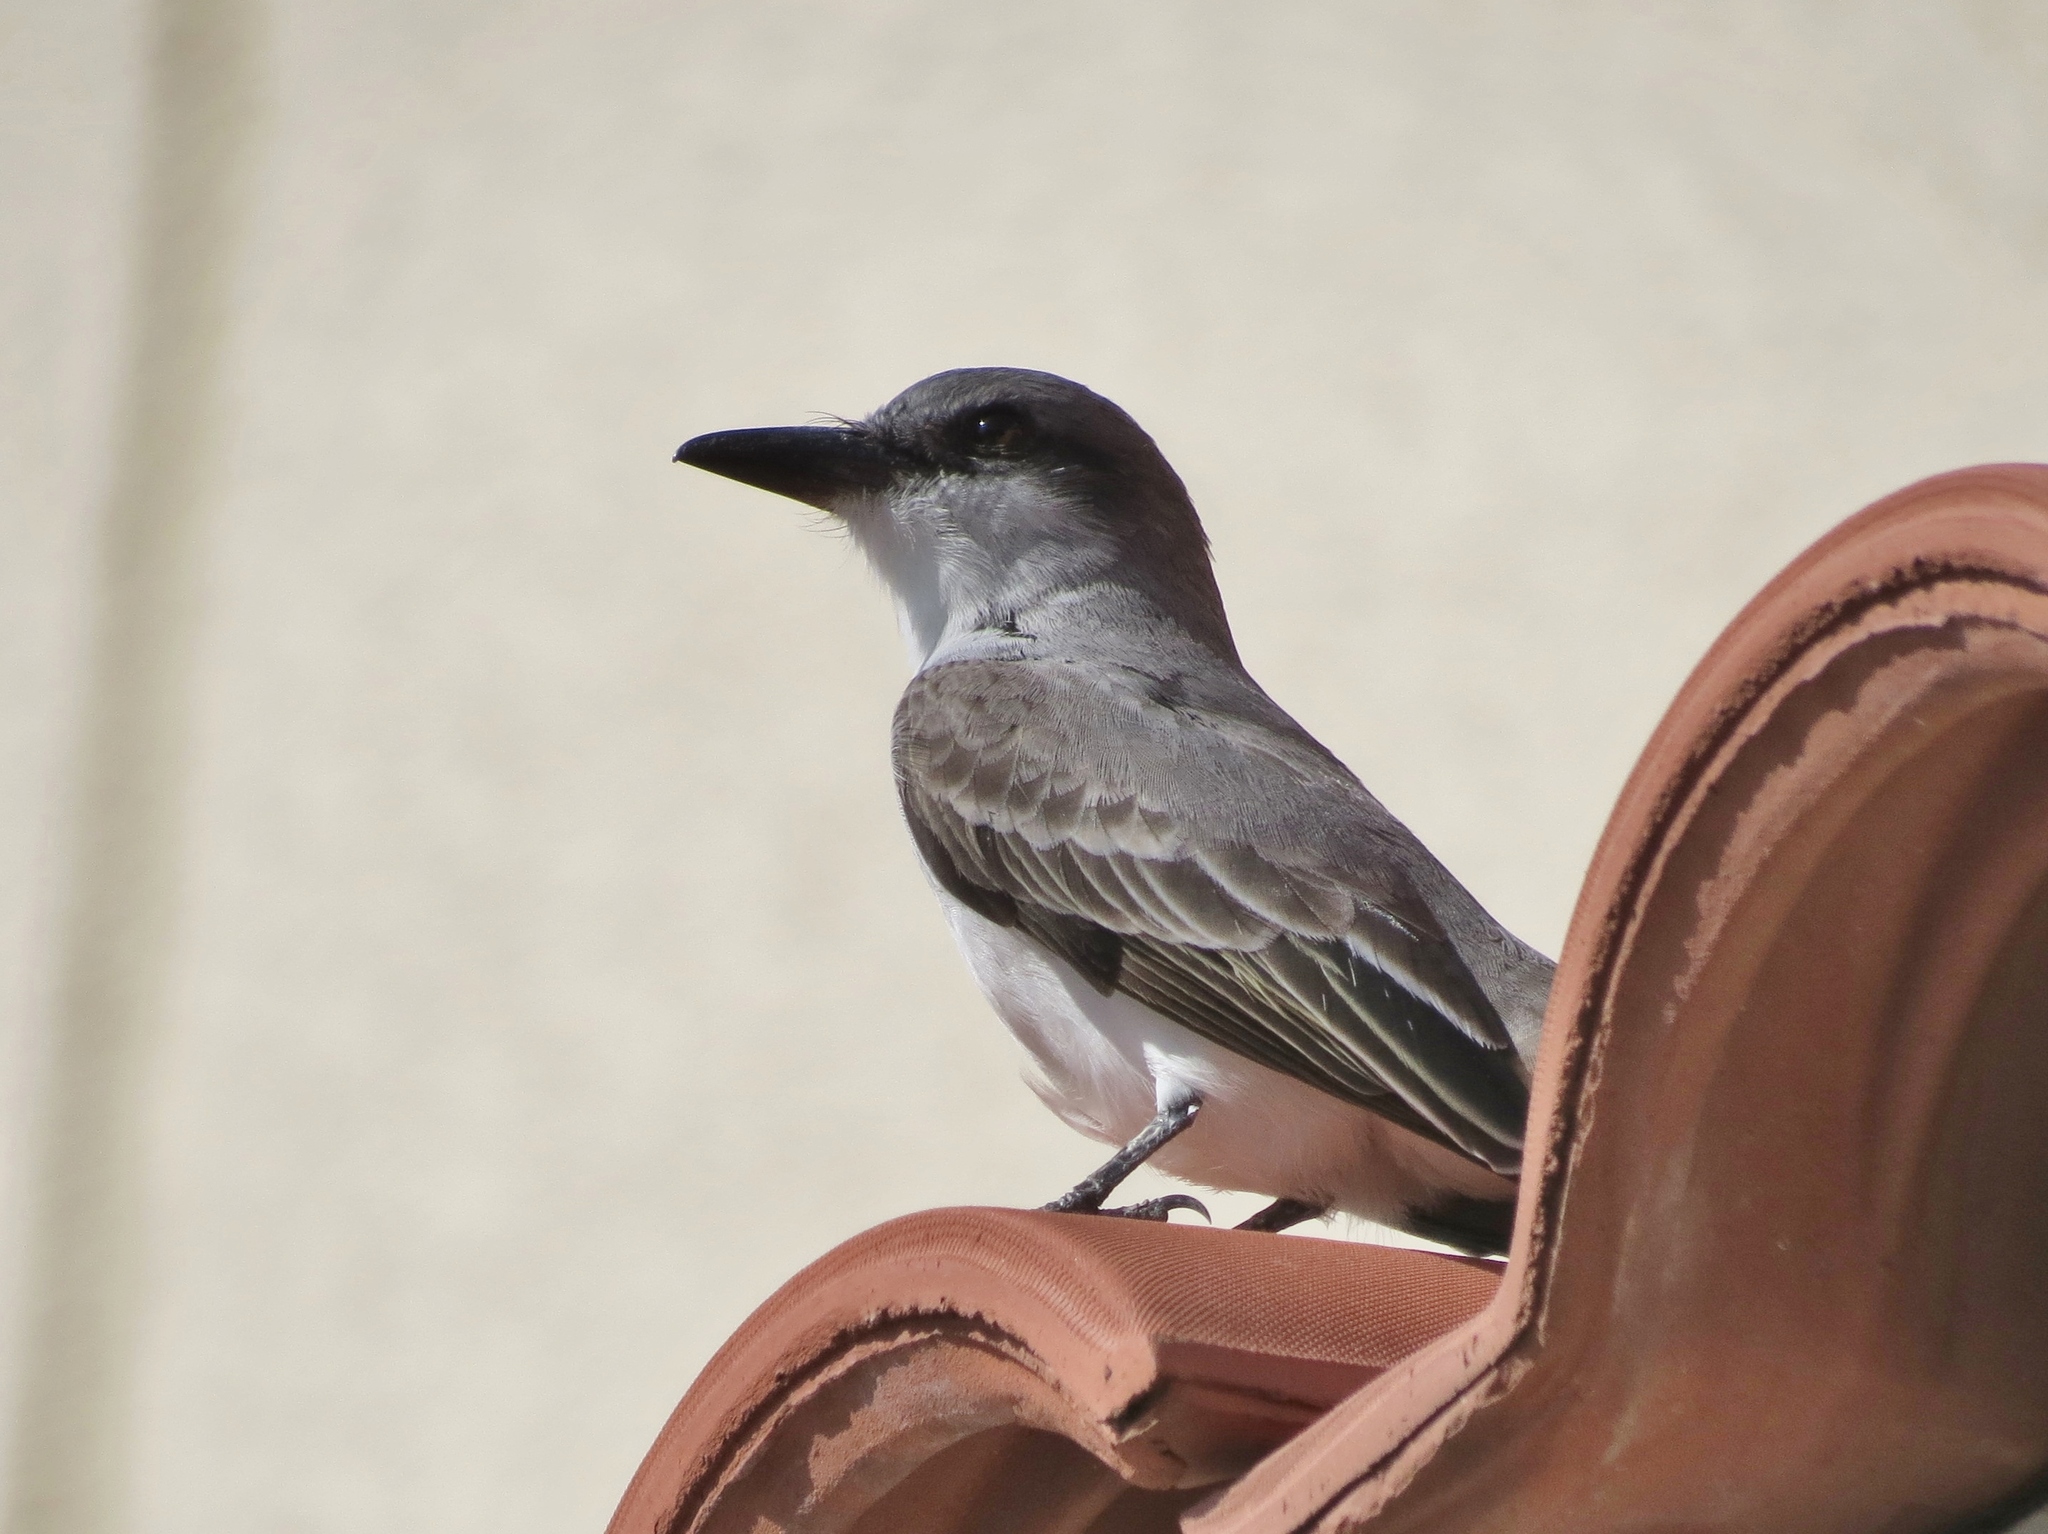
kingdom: Animalia
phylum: Chordata
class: Aves
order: Passeriformes
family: Tyrannidae
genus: Tyrannus
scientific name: Tyrannus dominicensis
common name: Gray kingbird
